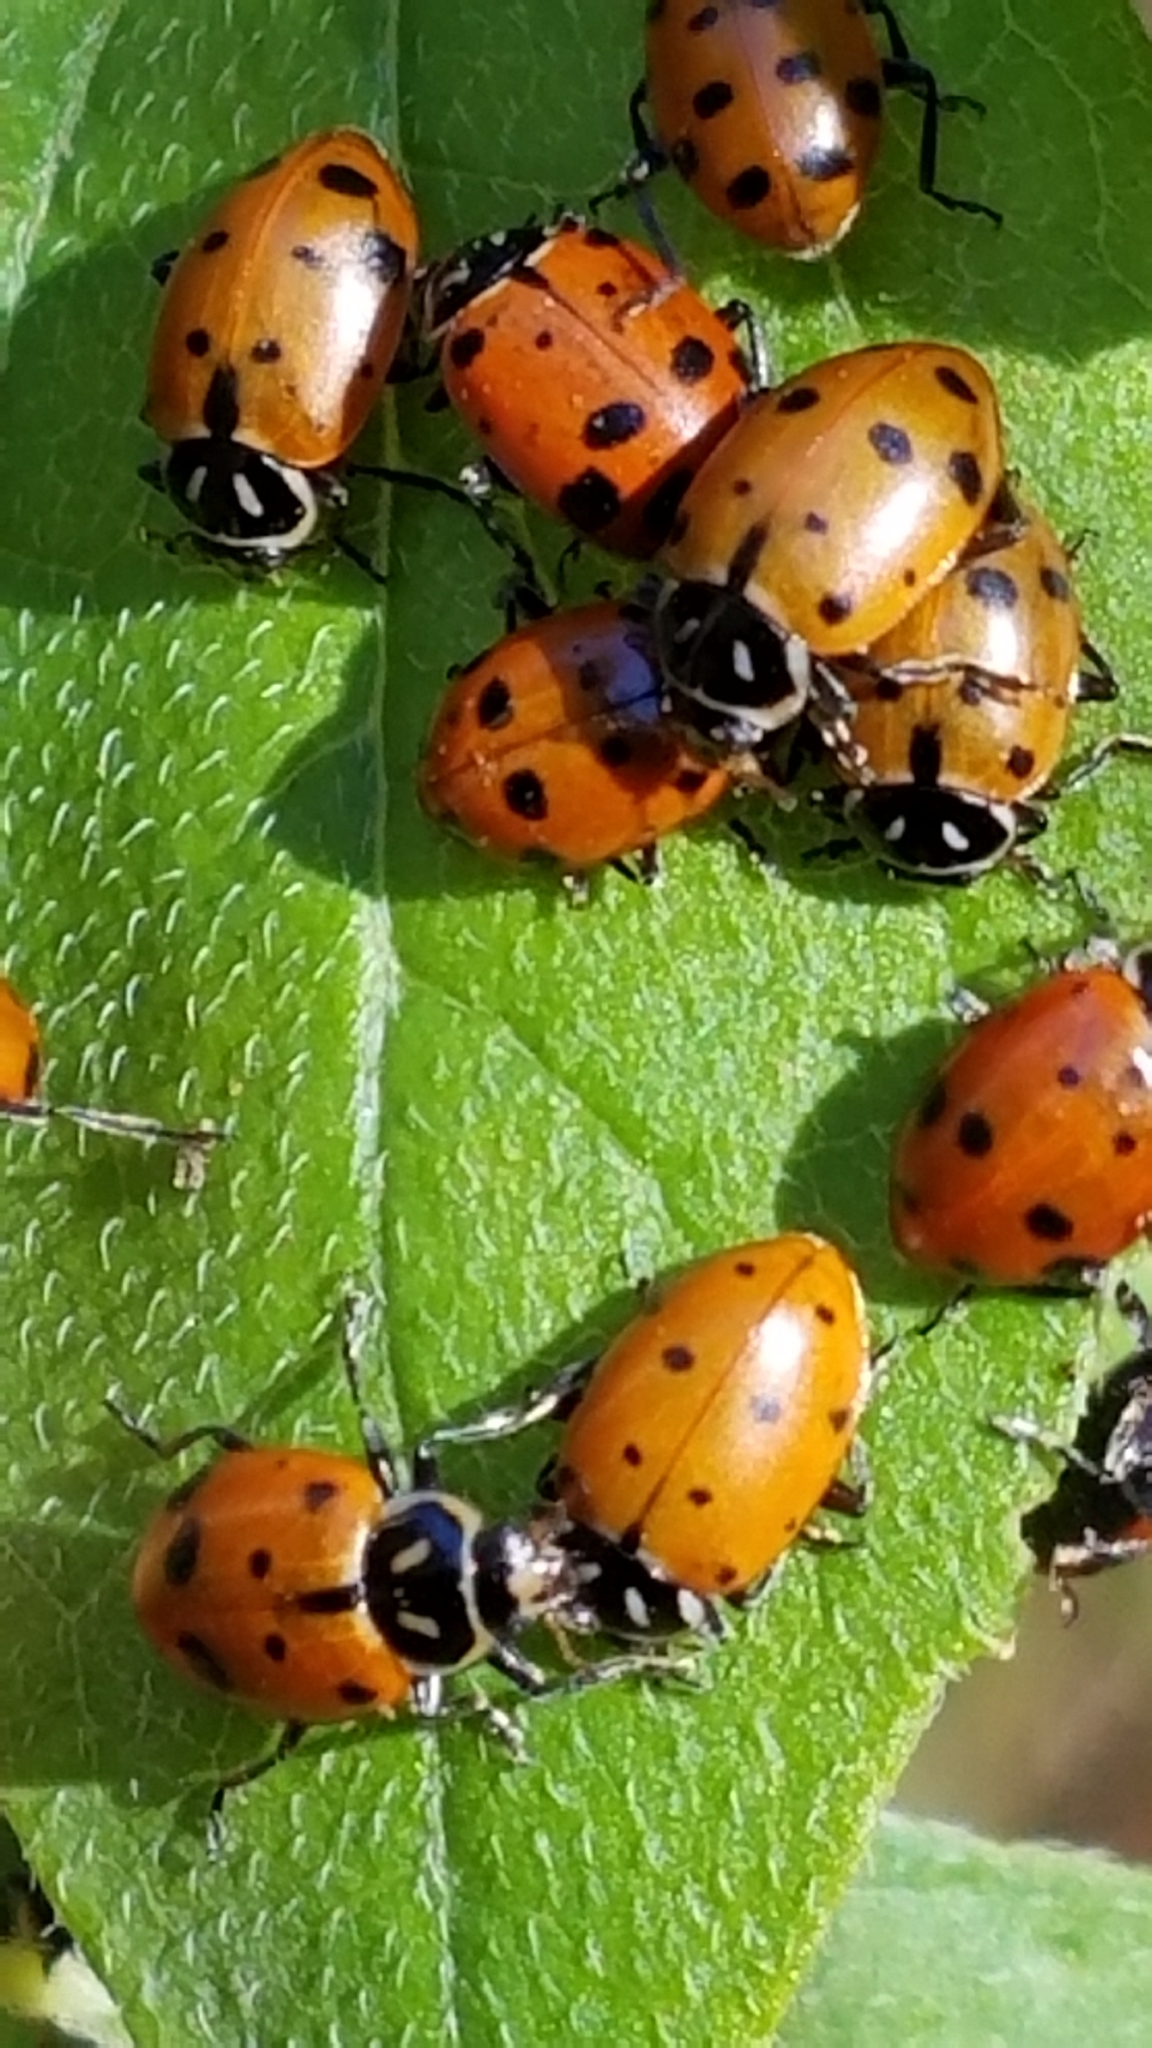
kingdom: Animalia
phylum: Arthropoda
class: Insecta
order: Coleoptera
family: Coccinellidae
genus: Hippodamia
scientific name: Hippodamia convergens
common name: Convergent lady beetle
